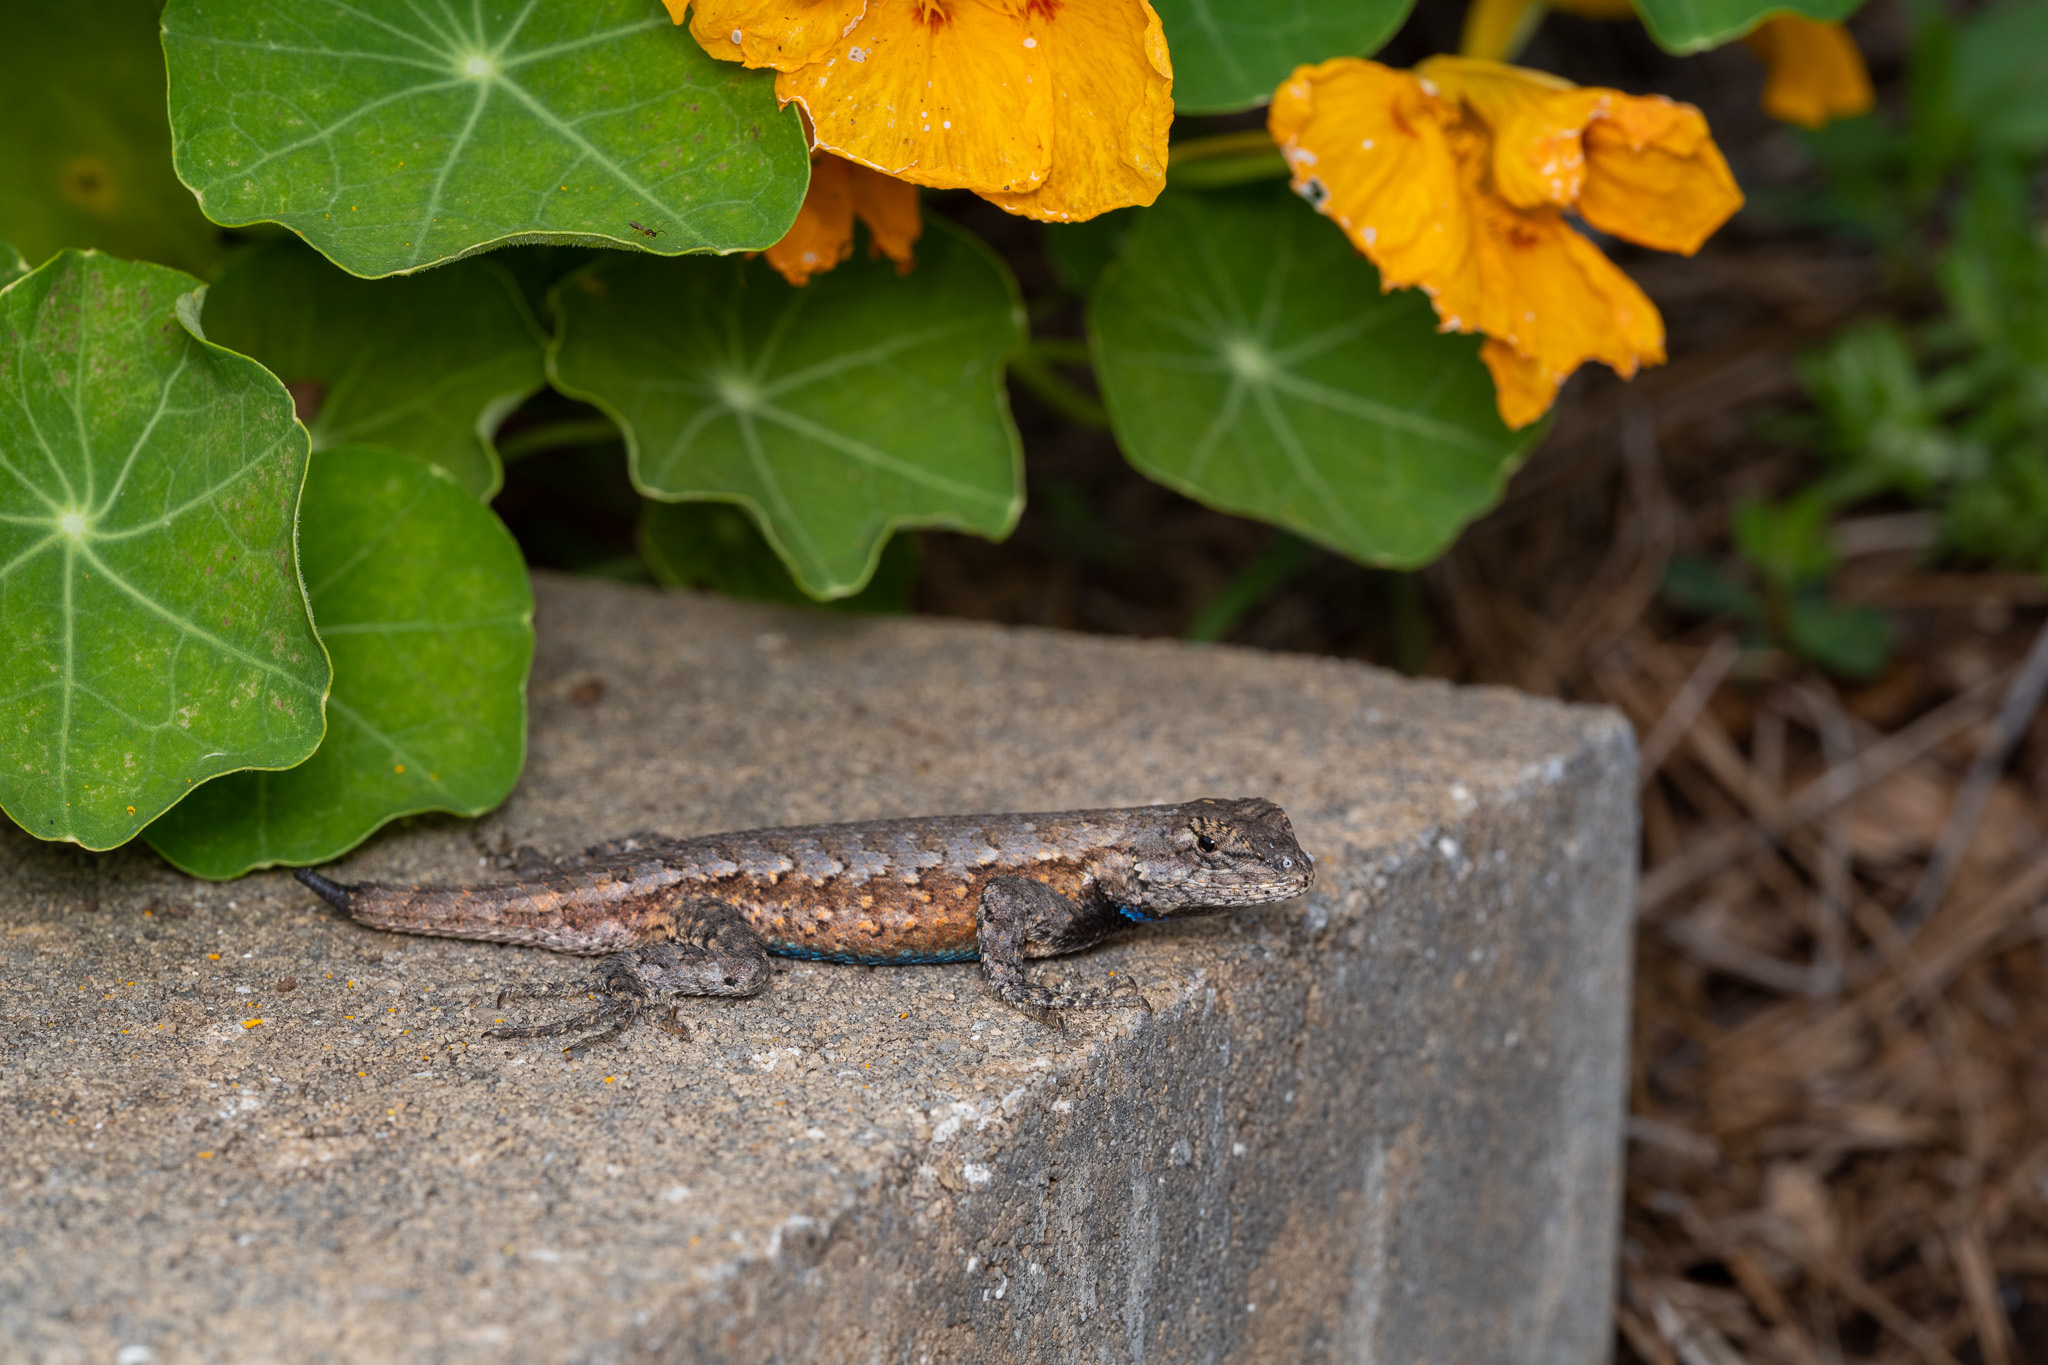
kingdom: Animalia
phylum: Chordata
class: Squamata
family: Phrynosomatidae
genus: Sceloporus
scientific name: Sceloporus undulatus
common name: Eastern fence lizard
